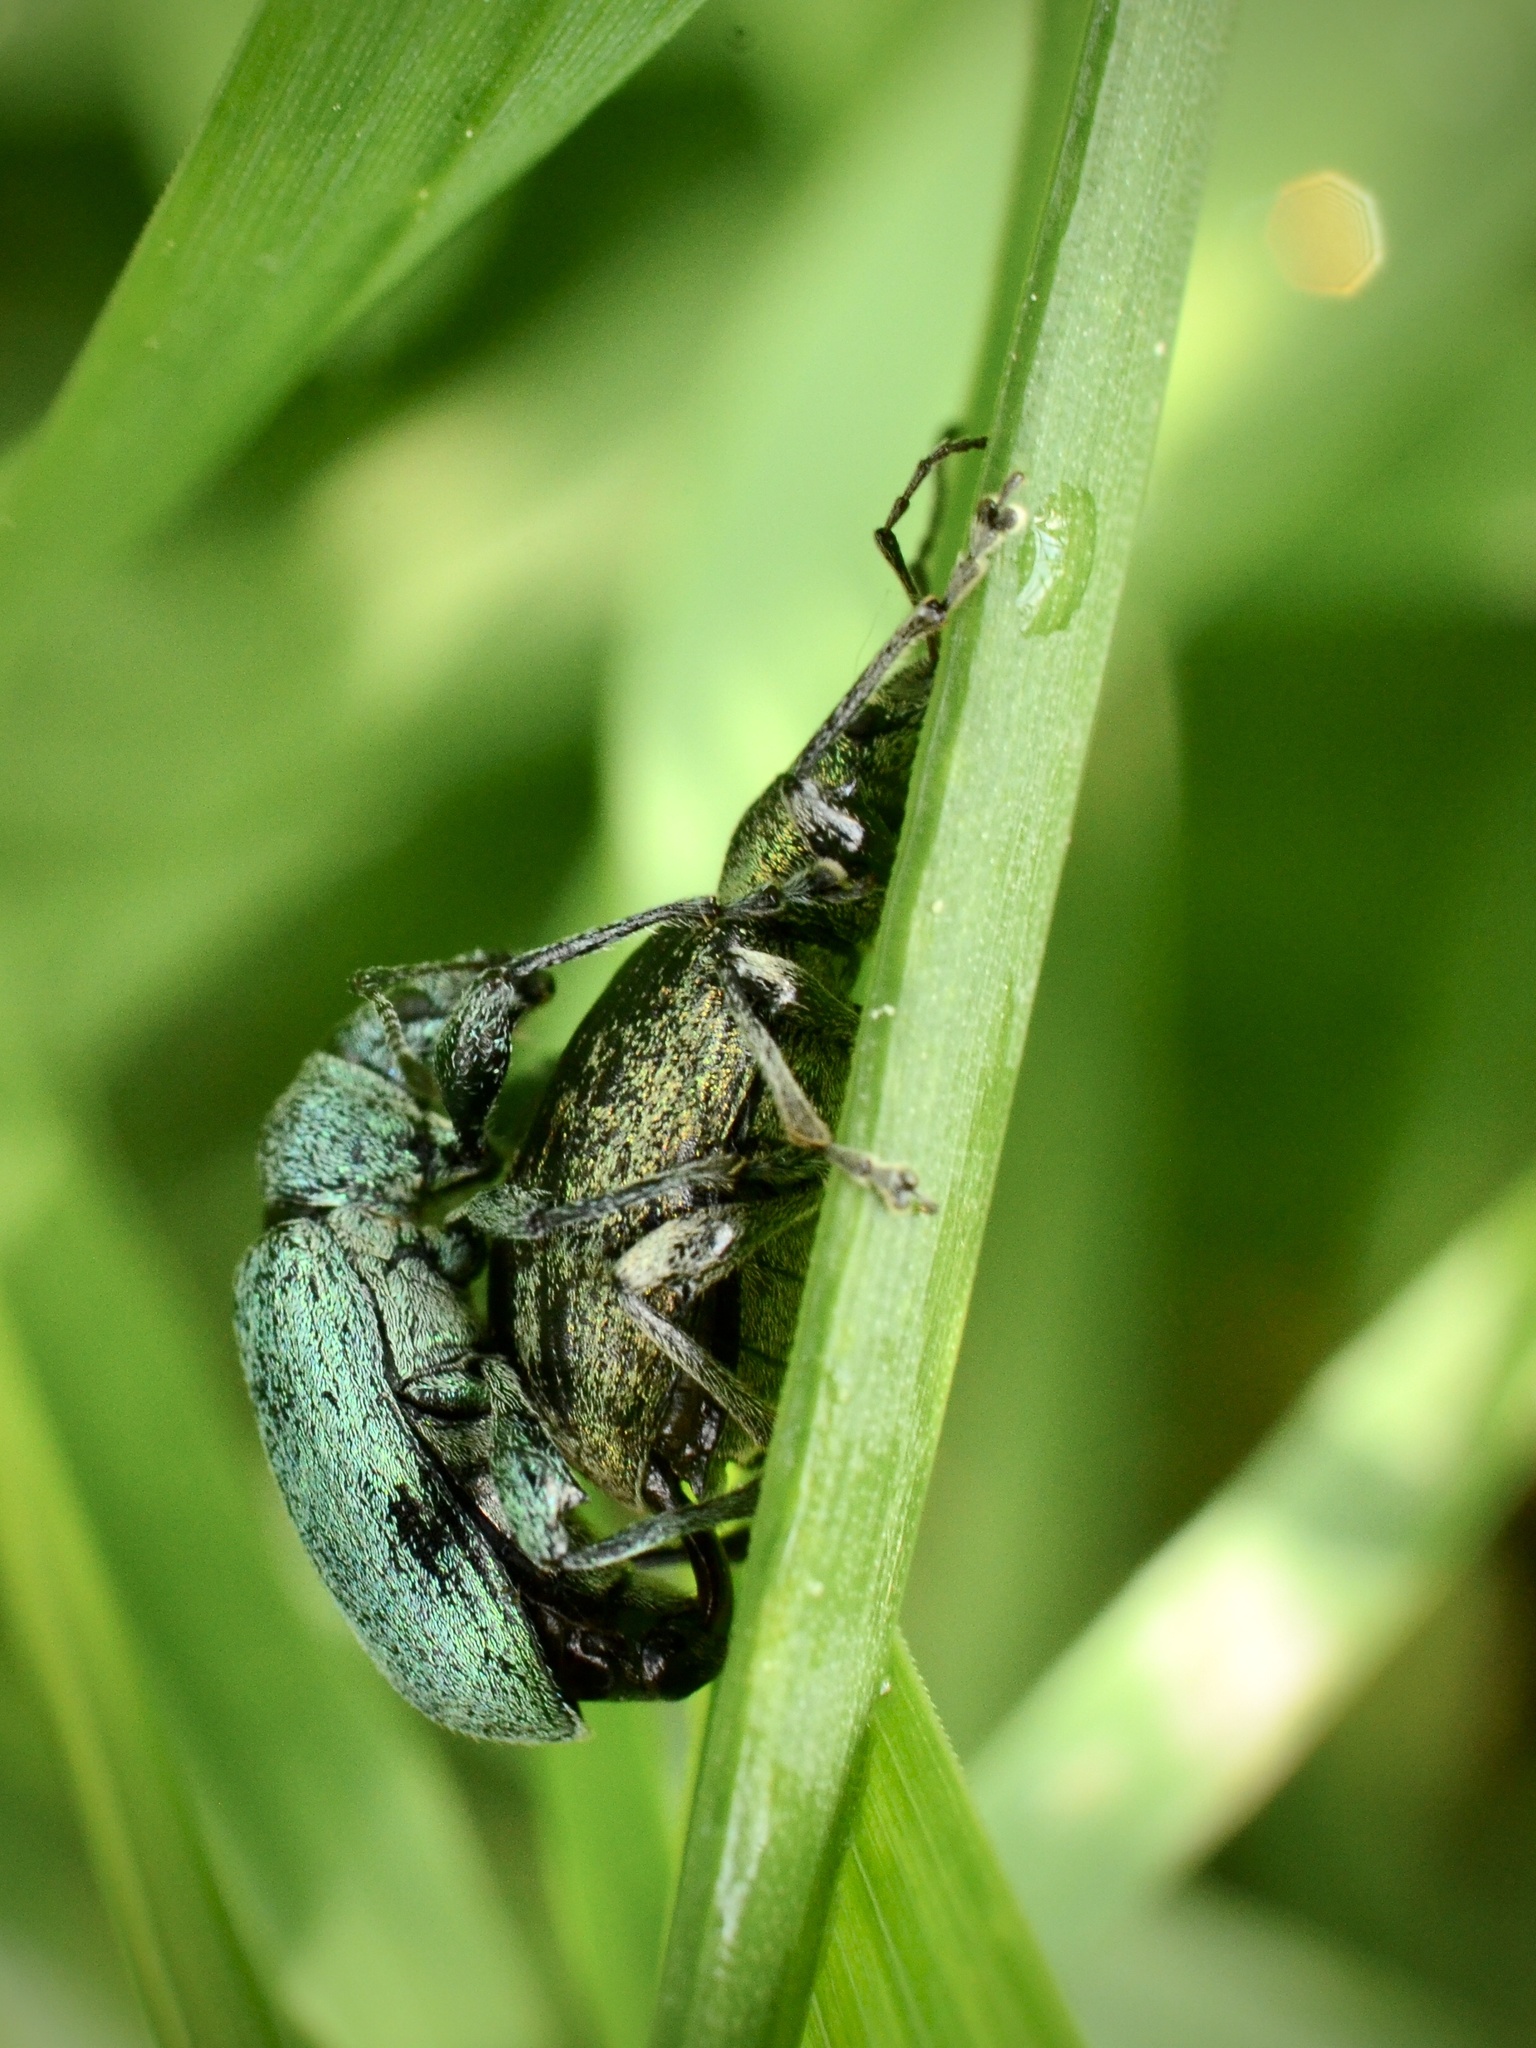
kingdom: Animalia
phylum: Arthropoda
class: Insecta
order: Coleoptera
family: Curculionidae
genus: Phyllobius
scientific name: Phyllobius pomaceus
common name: Green nettle weevil
